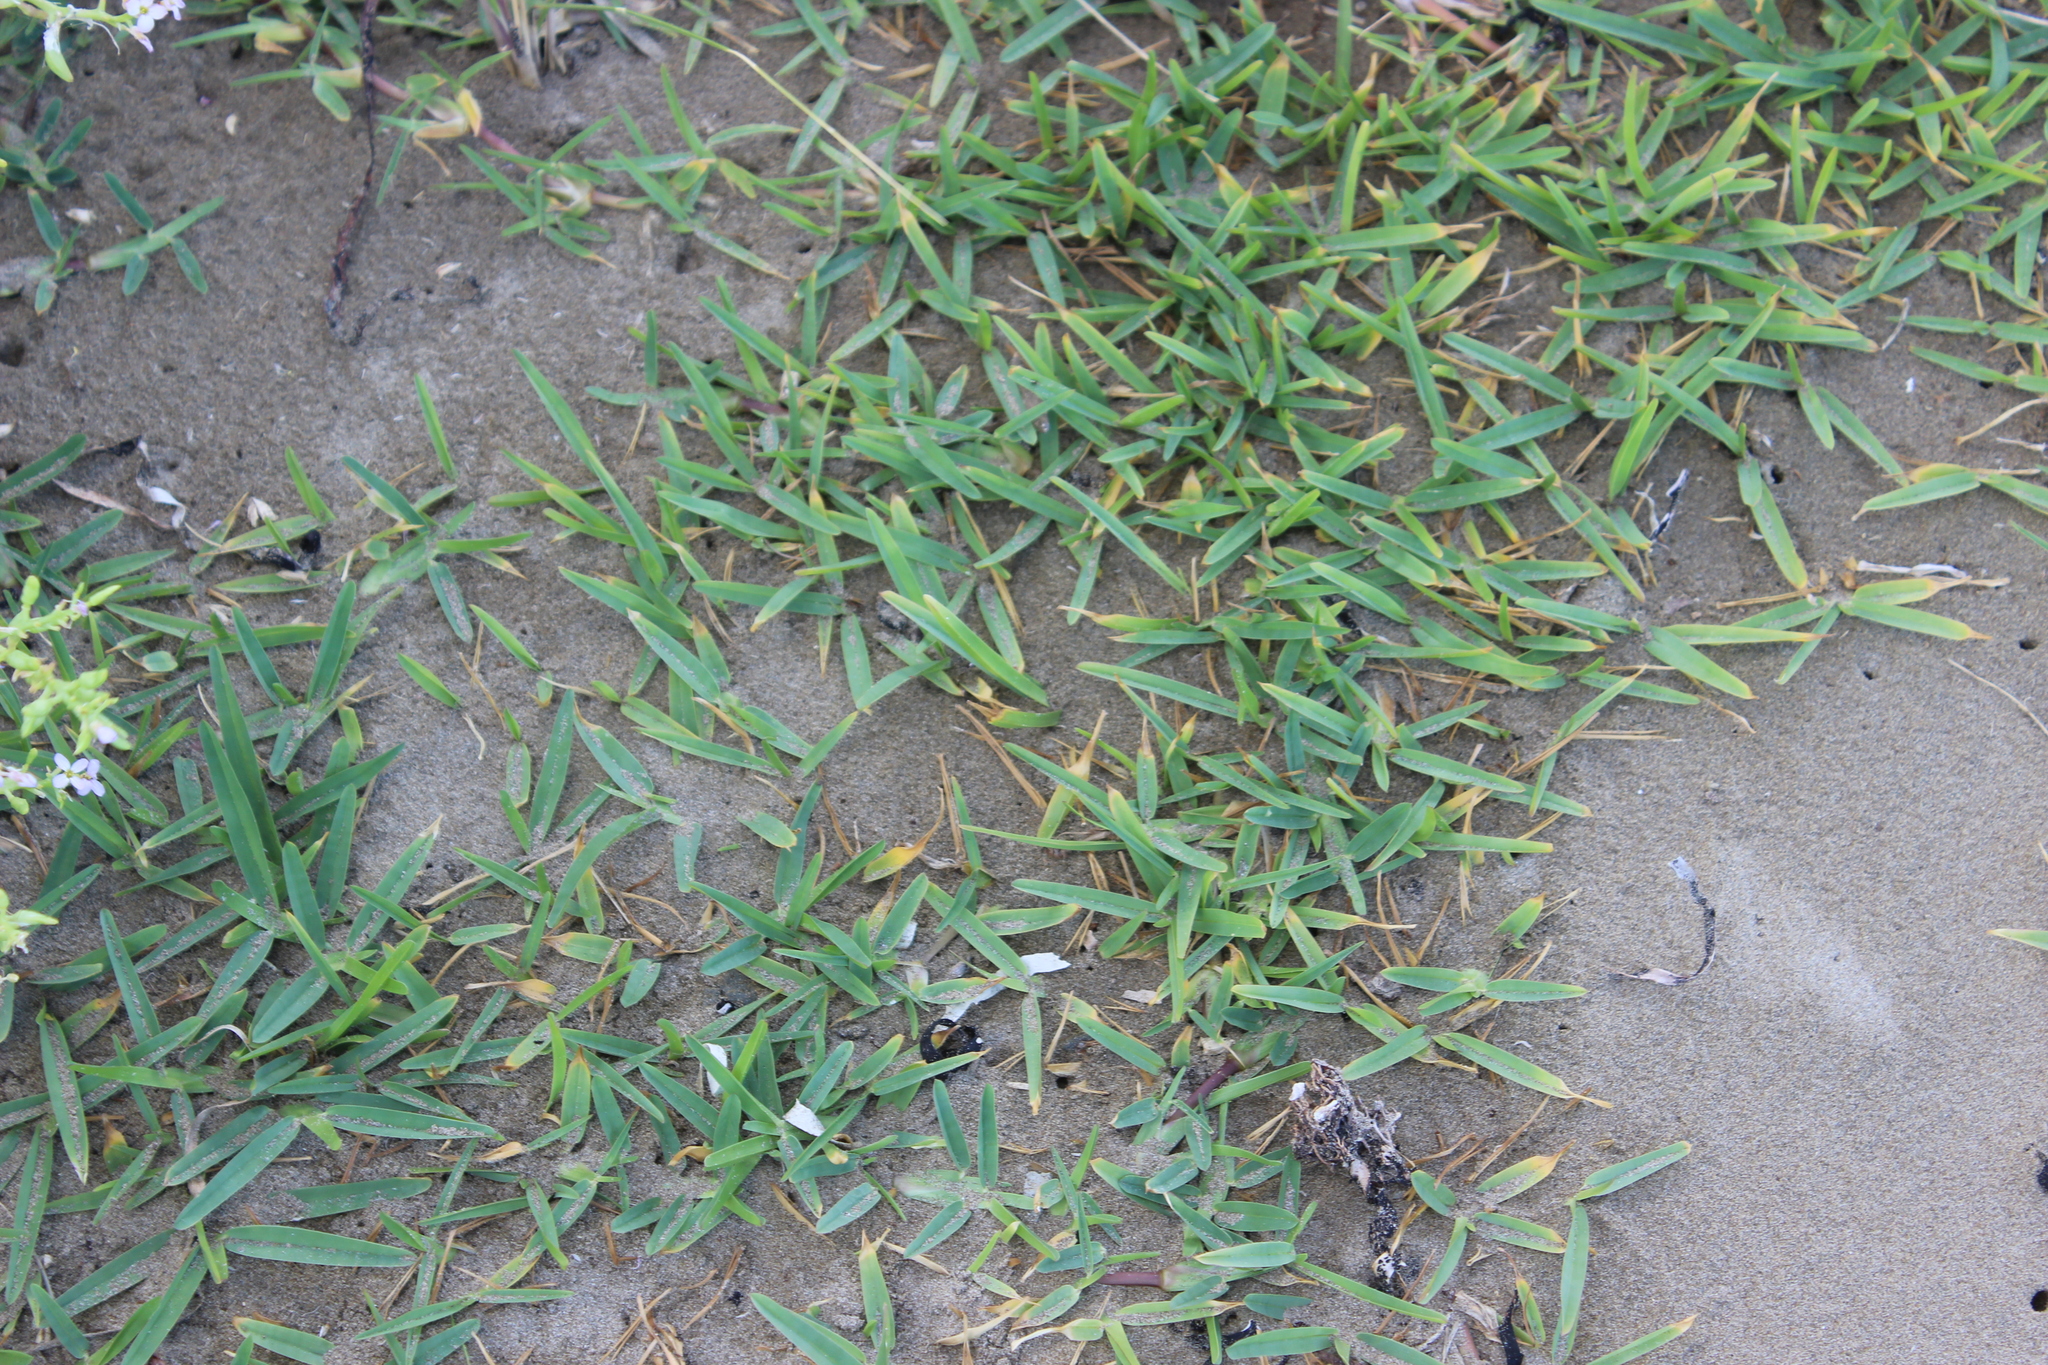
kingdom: Plantae
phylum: Tracheophyta
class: Liliopsida
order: Poales
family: Poaceae
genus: Stenotaphrum
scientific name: Stenotaphrum secundatum
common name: St. augustine grass
